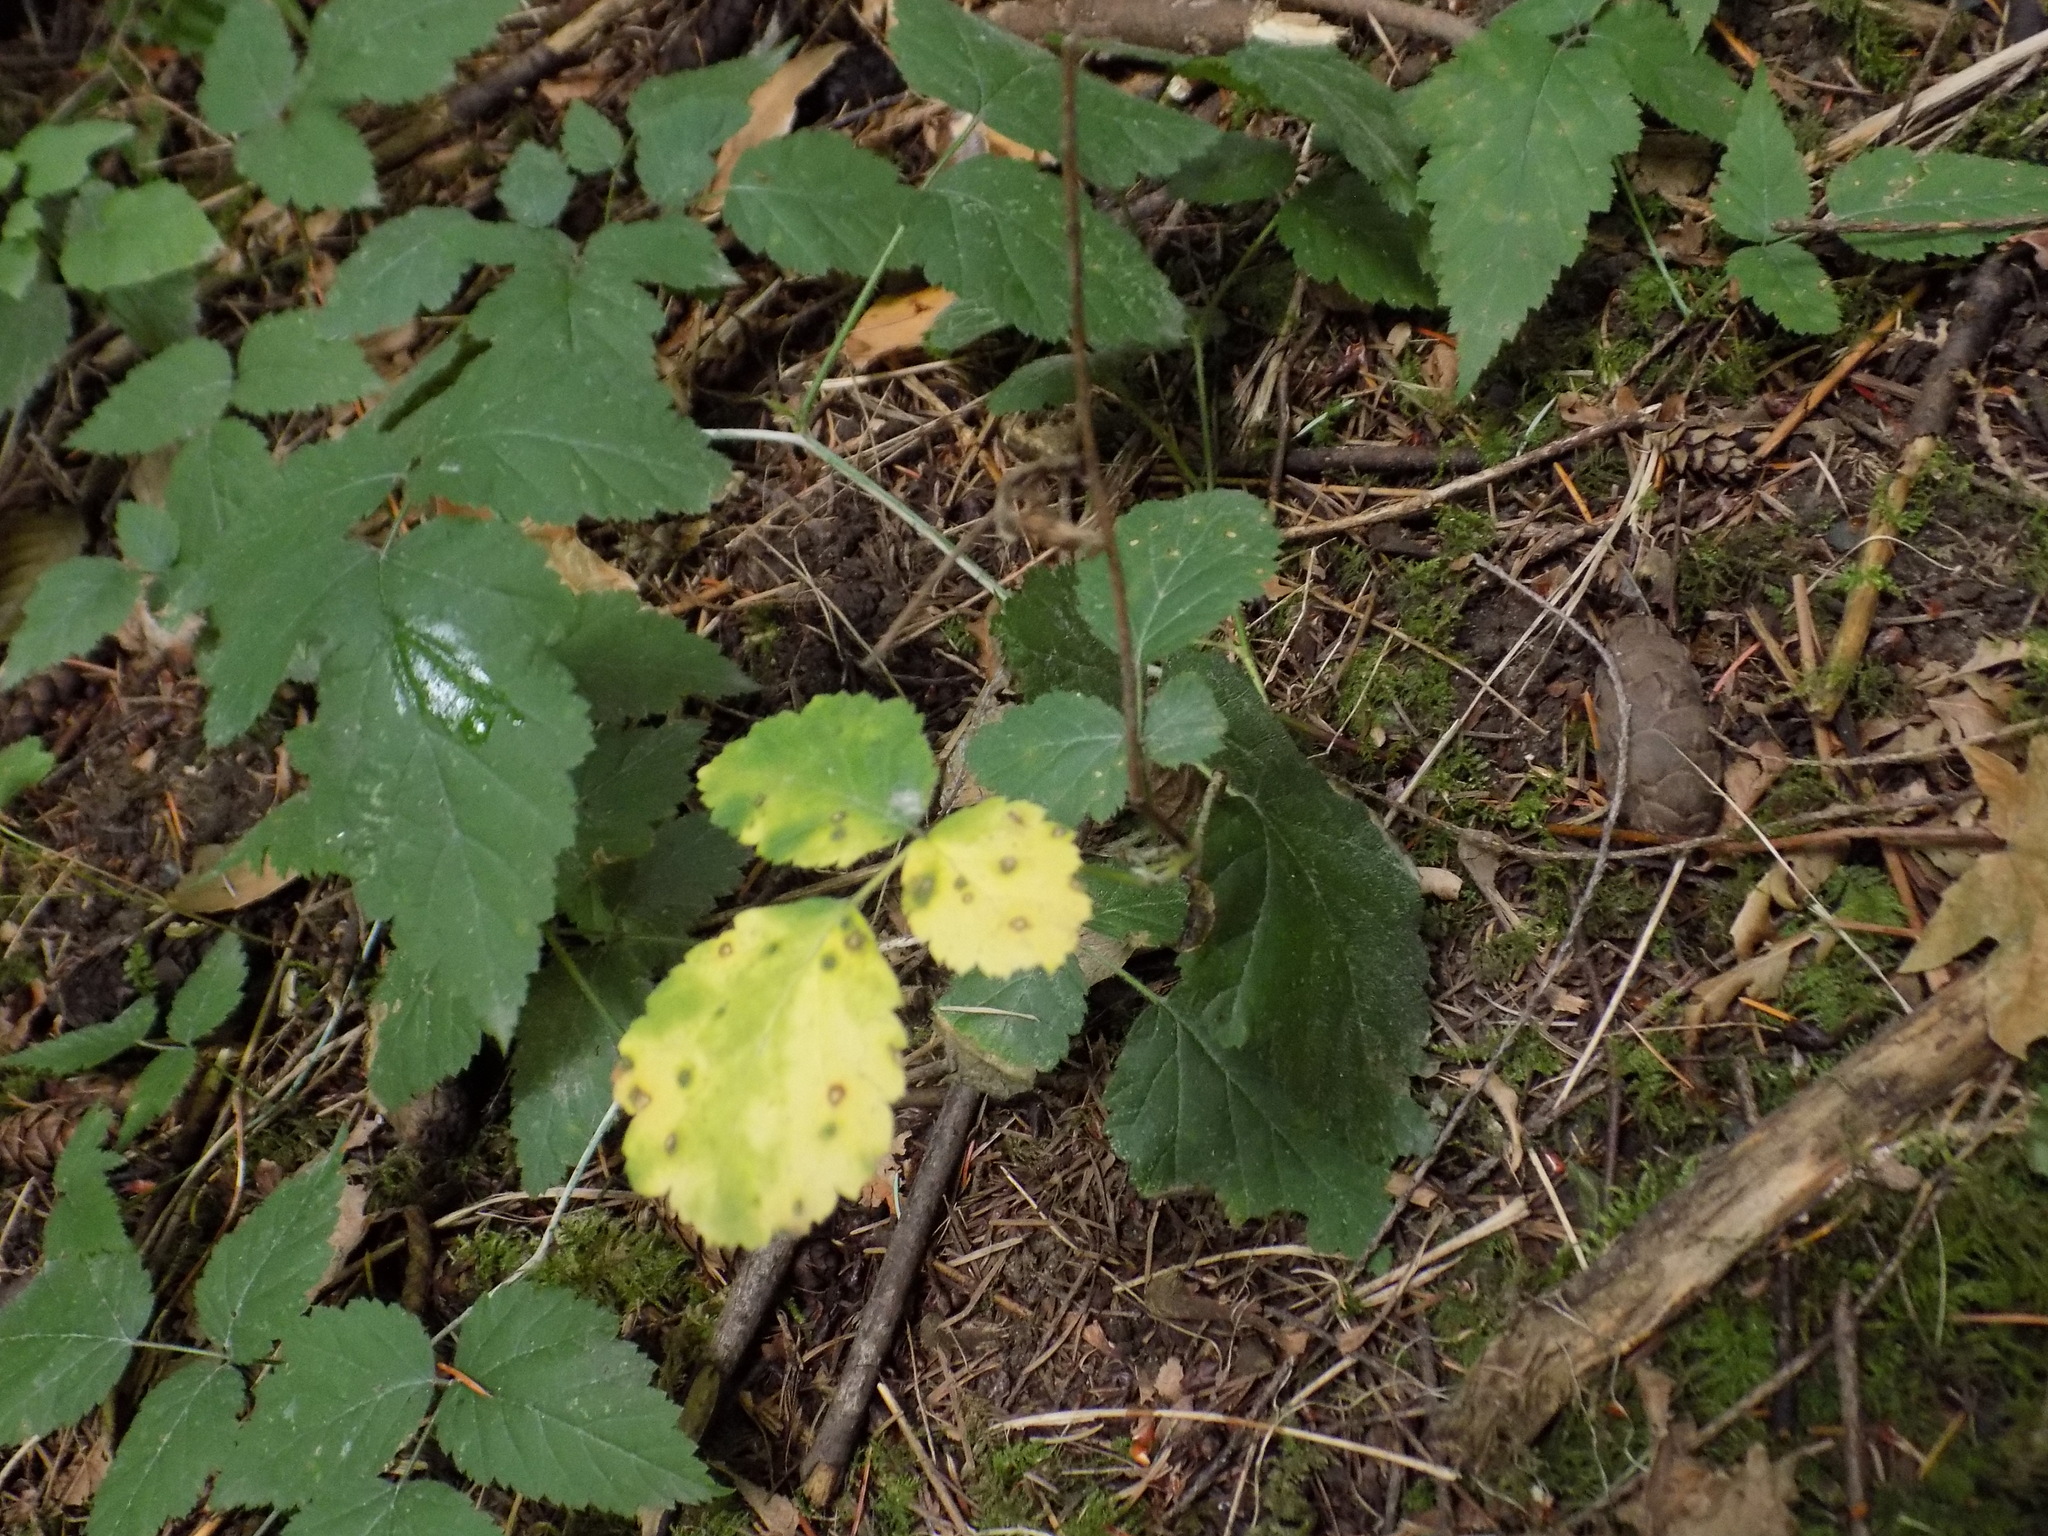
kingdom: Plantae
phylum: Tracheophyta
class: Magnoliopsida
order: Rosales
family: Rosaceae
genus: Rubus
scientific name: Rubus ursinus
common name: Pacific blackberry
